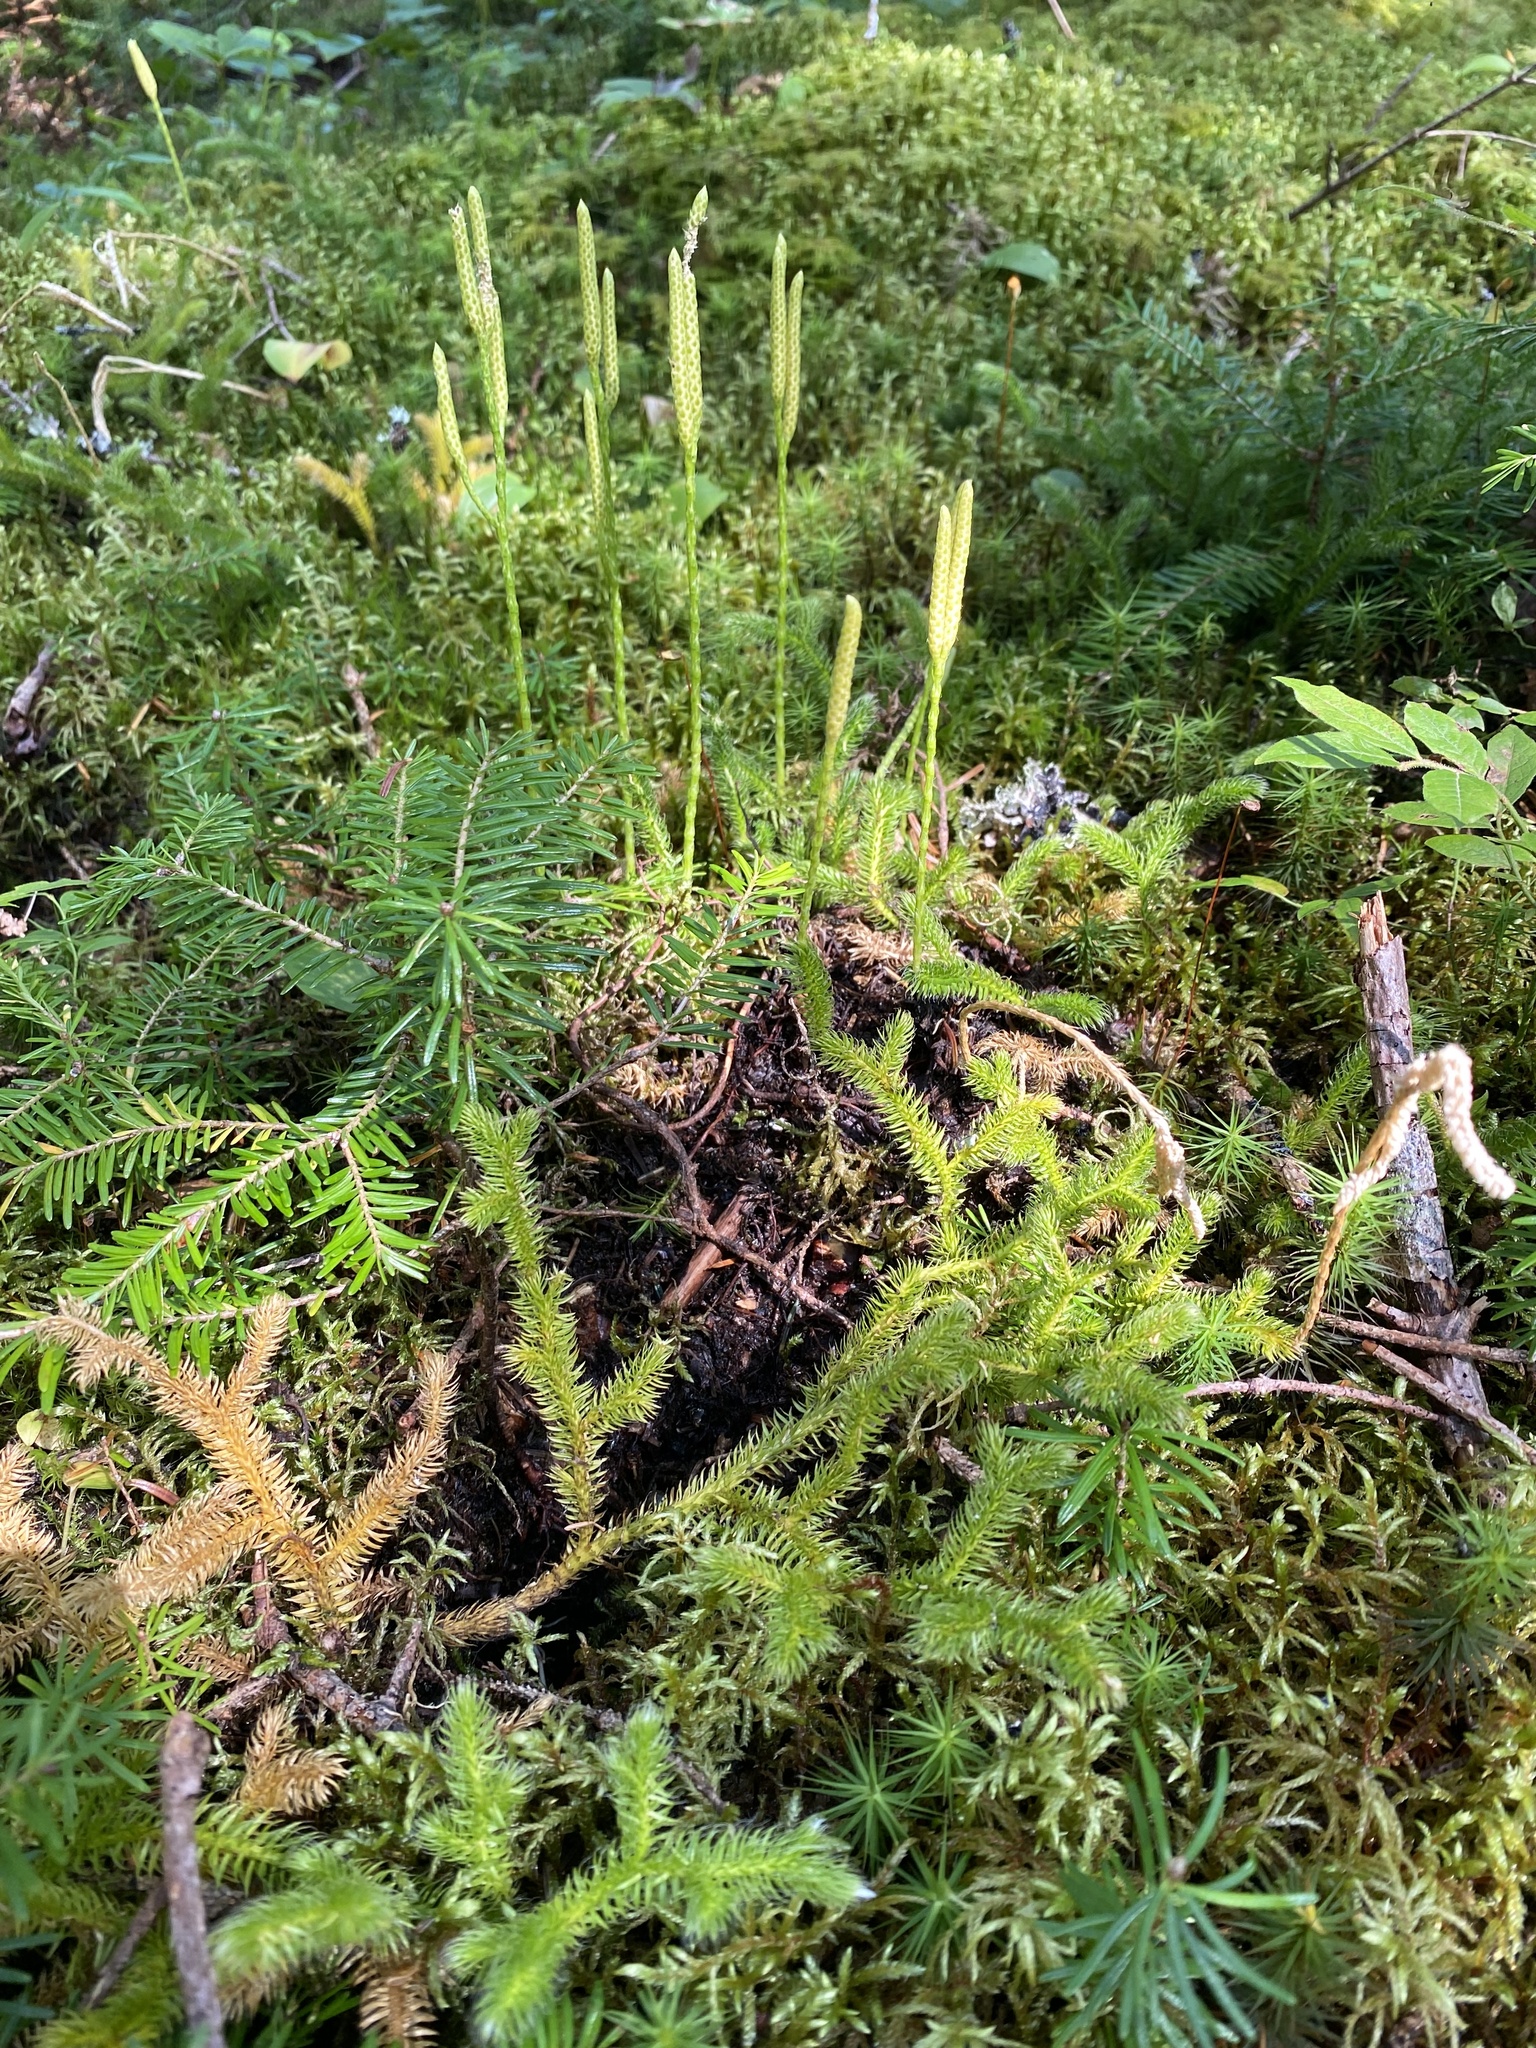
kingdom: Plantae
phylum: Tracheophyta
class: Lycopodiopsida
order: Lycopodiales
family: Lycopodiaceae
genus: Lycopodium
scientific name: Lycopodium clavatum
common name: Stag's-horn clubmoss
